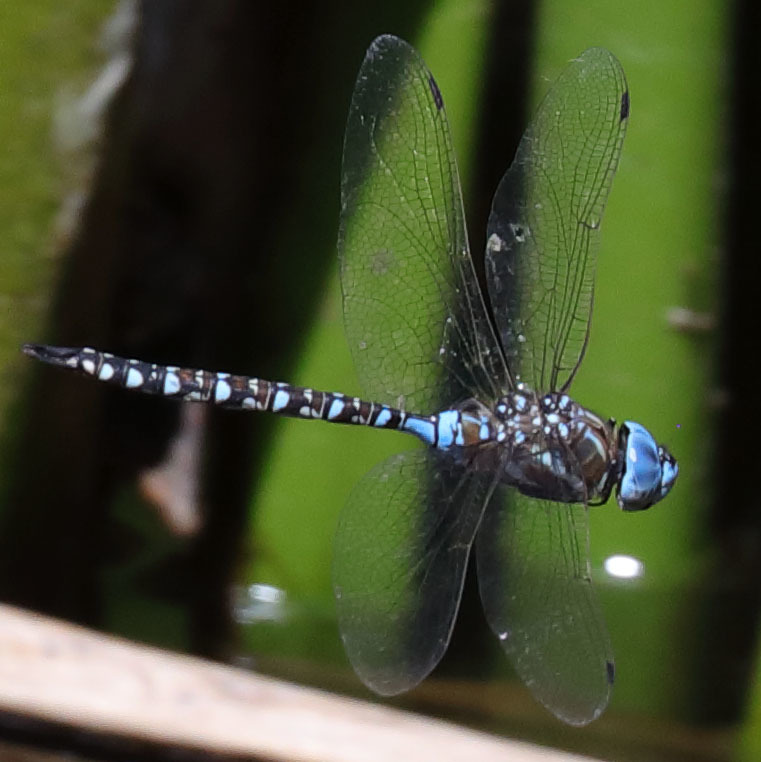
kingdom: Animalia
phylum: Arthropoda
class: Insecta
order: Odonata
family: Aeshnidae
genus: Rhionaeschna
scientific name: Rhionaeschna multicolor
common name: Blue-eyed darner
